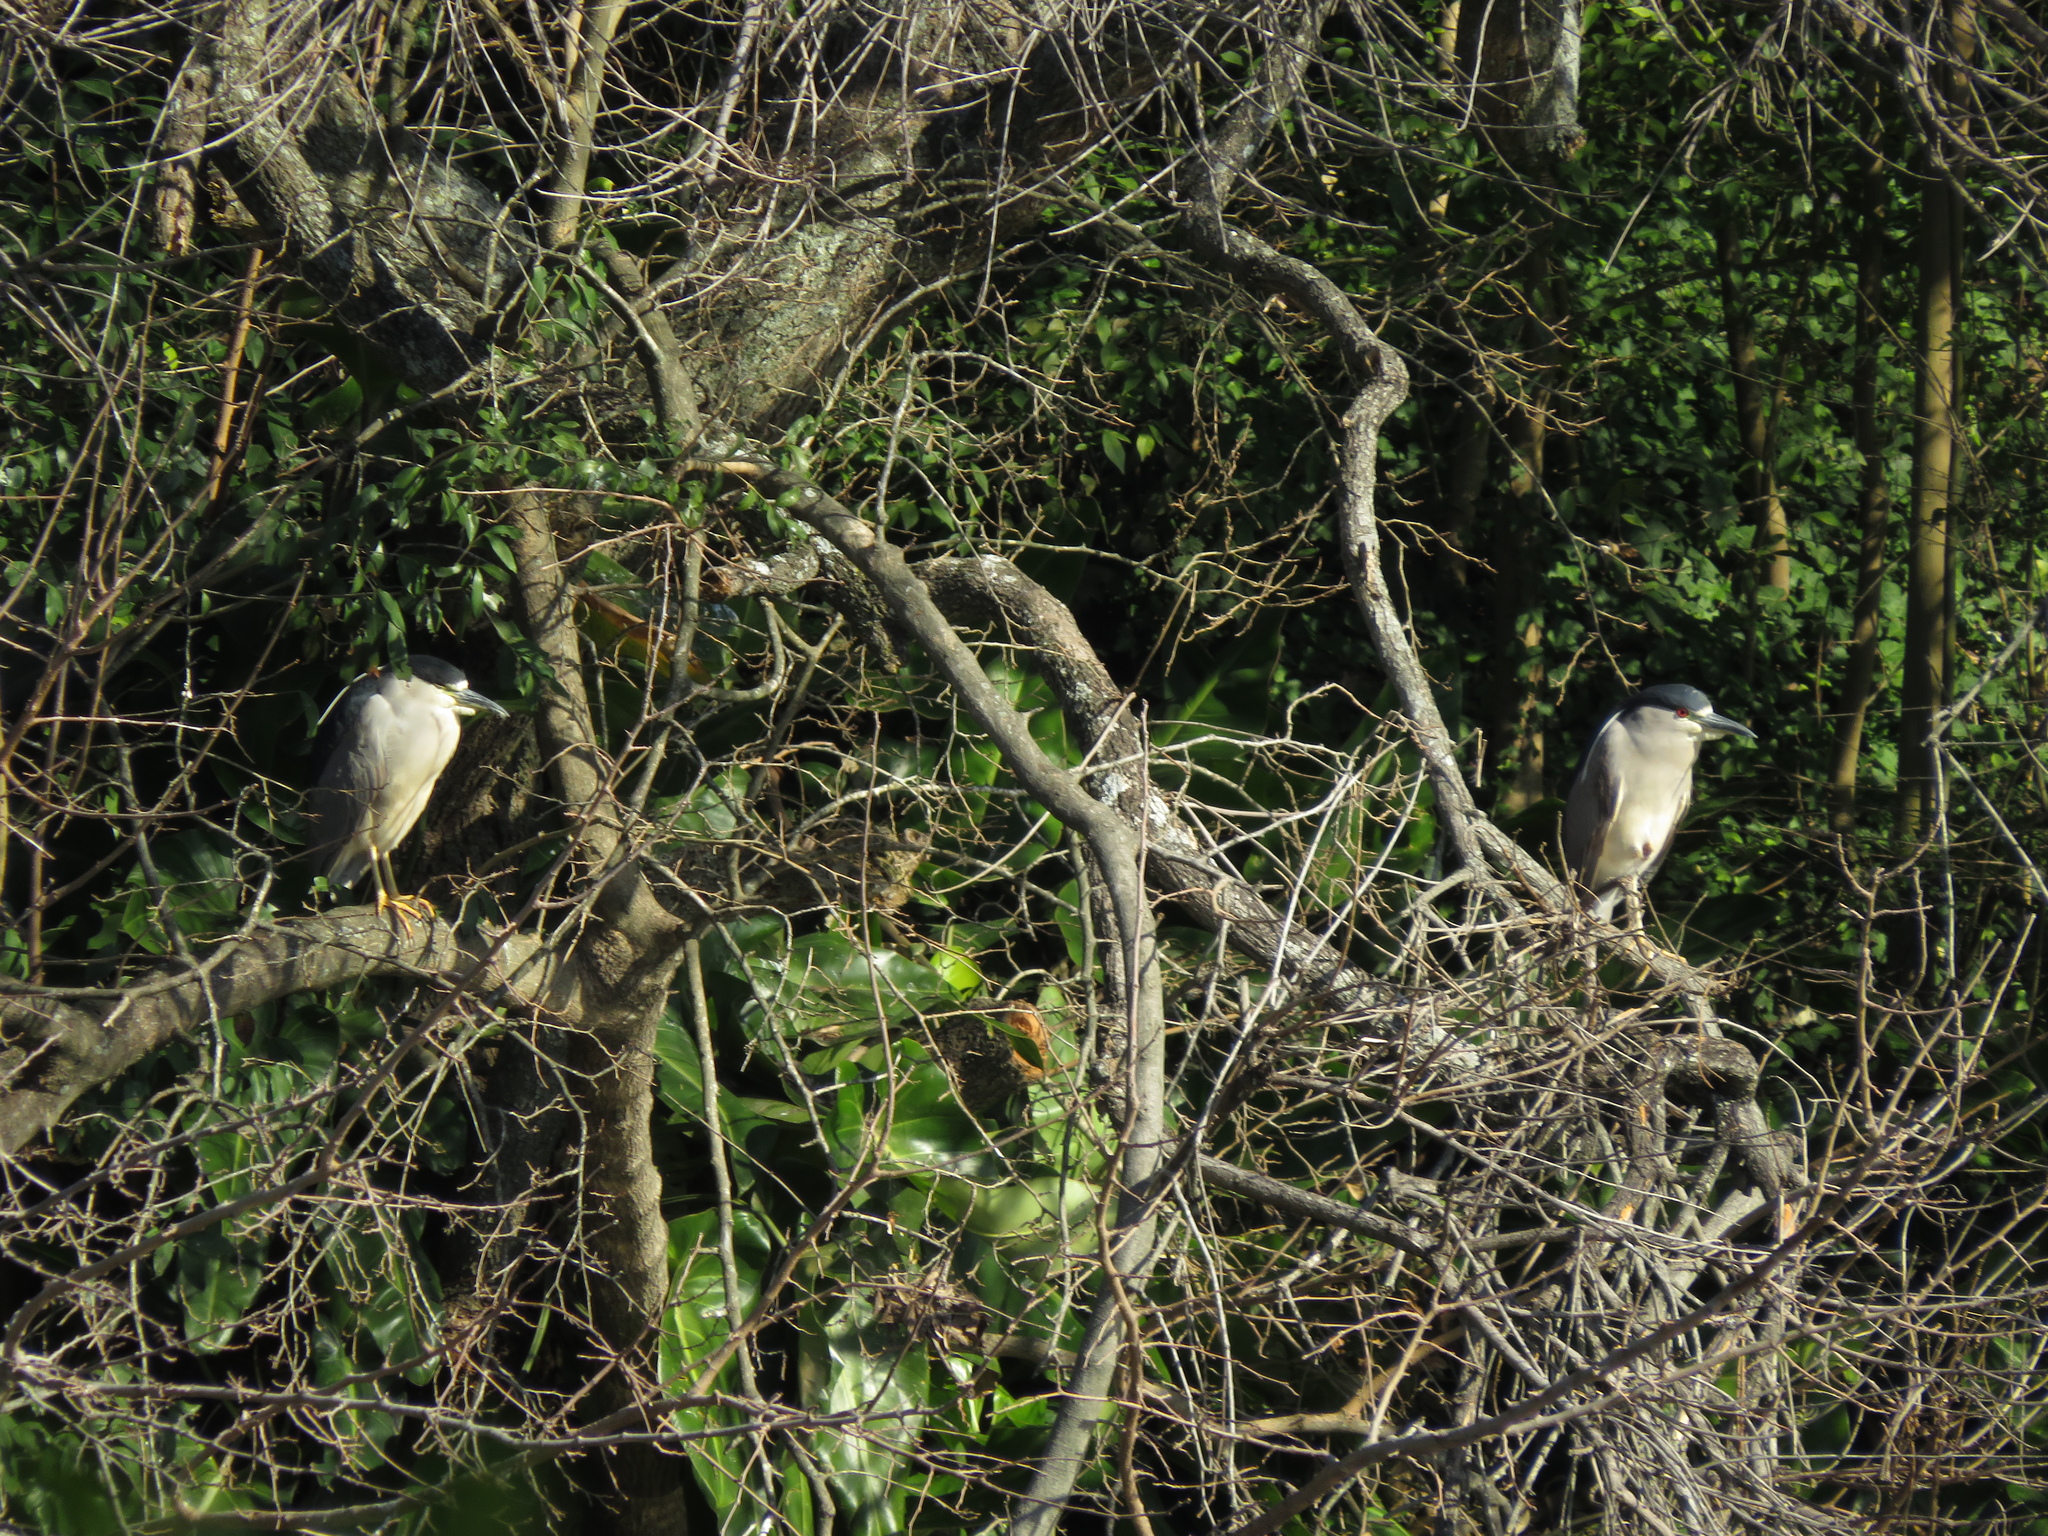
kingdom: Animalia
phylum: Chordata
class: Aves
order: Pelecaniformes
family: Ardeidae
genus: Nycticorax
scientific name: Nycticorax nycticorax
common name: Black-crowned night heron
